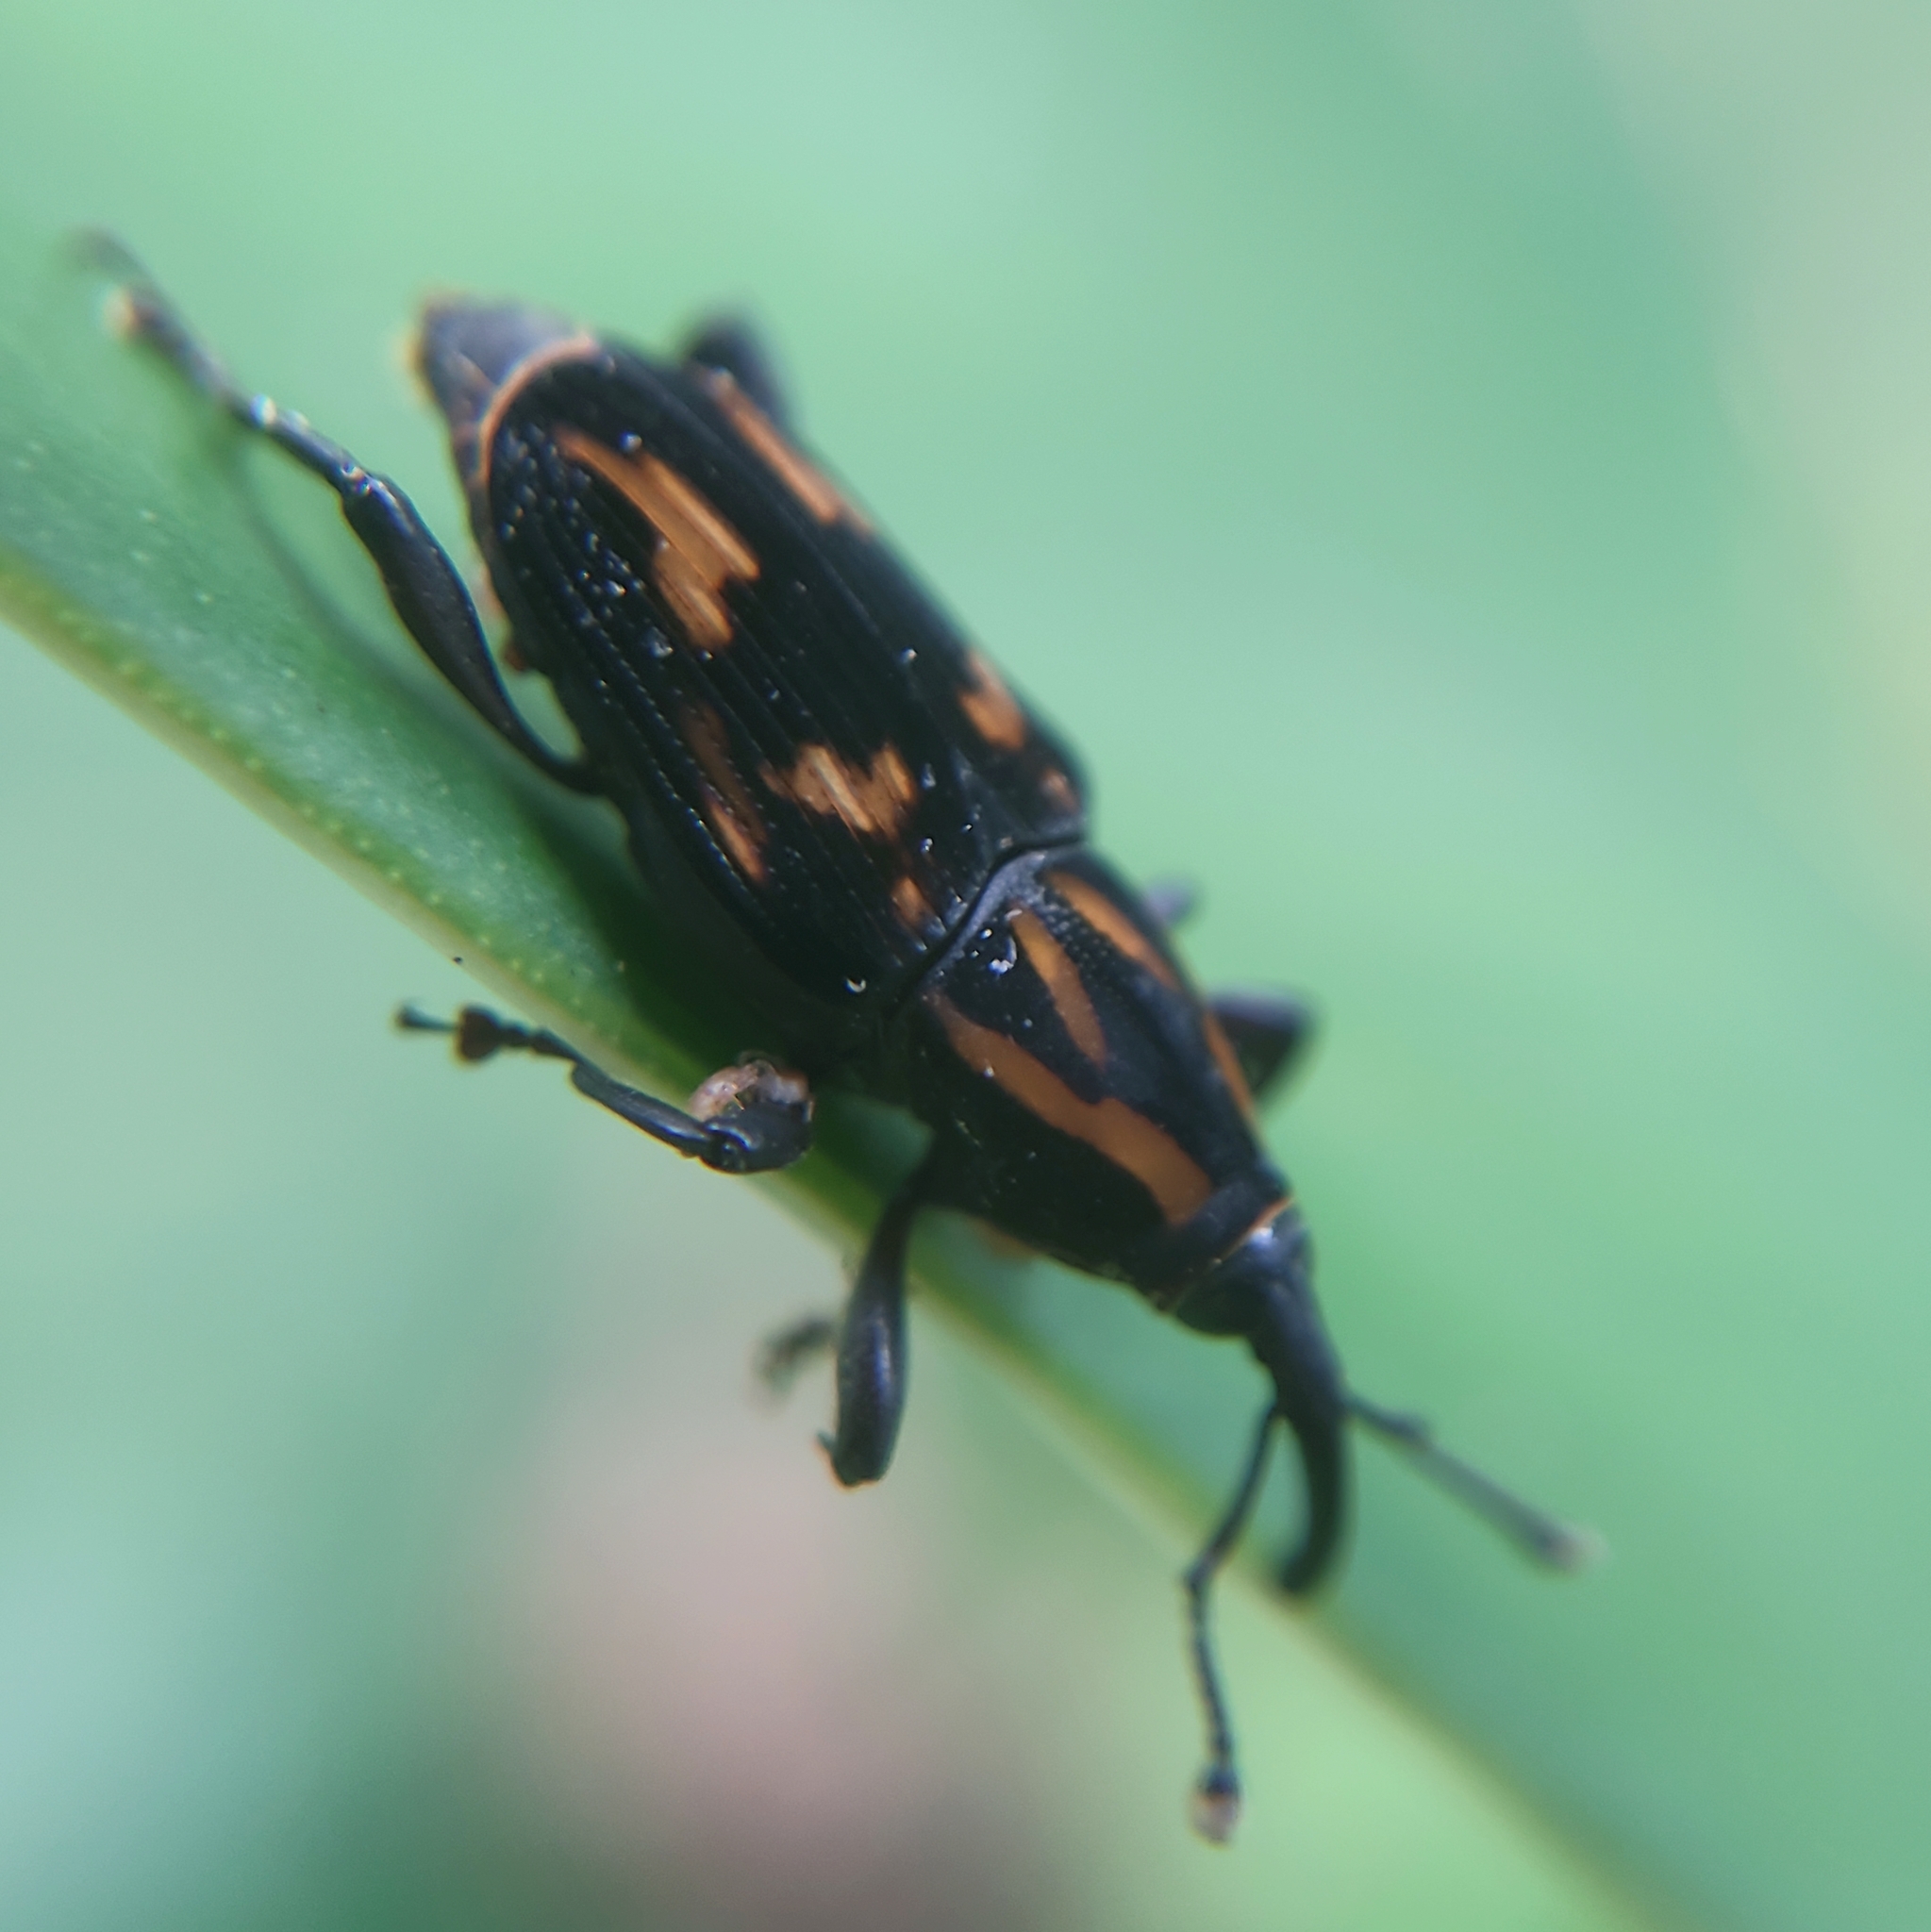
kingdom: Animalia
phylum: Arthropoda
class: Insecta
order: Coleoptera
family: Dryophthoridae
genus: Metamasius
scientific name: Metamasius ensirostris
